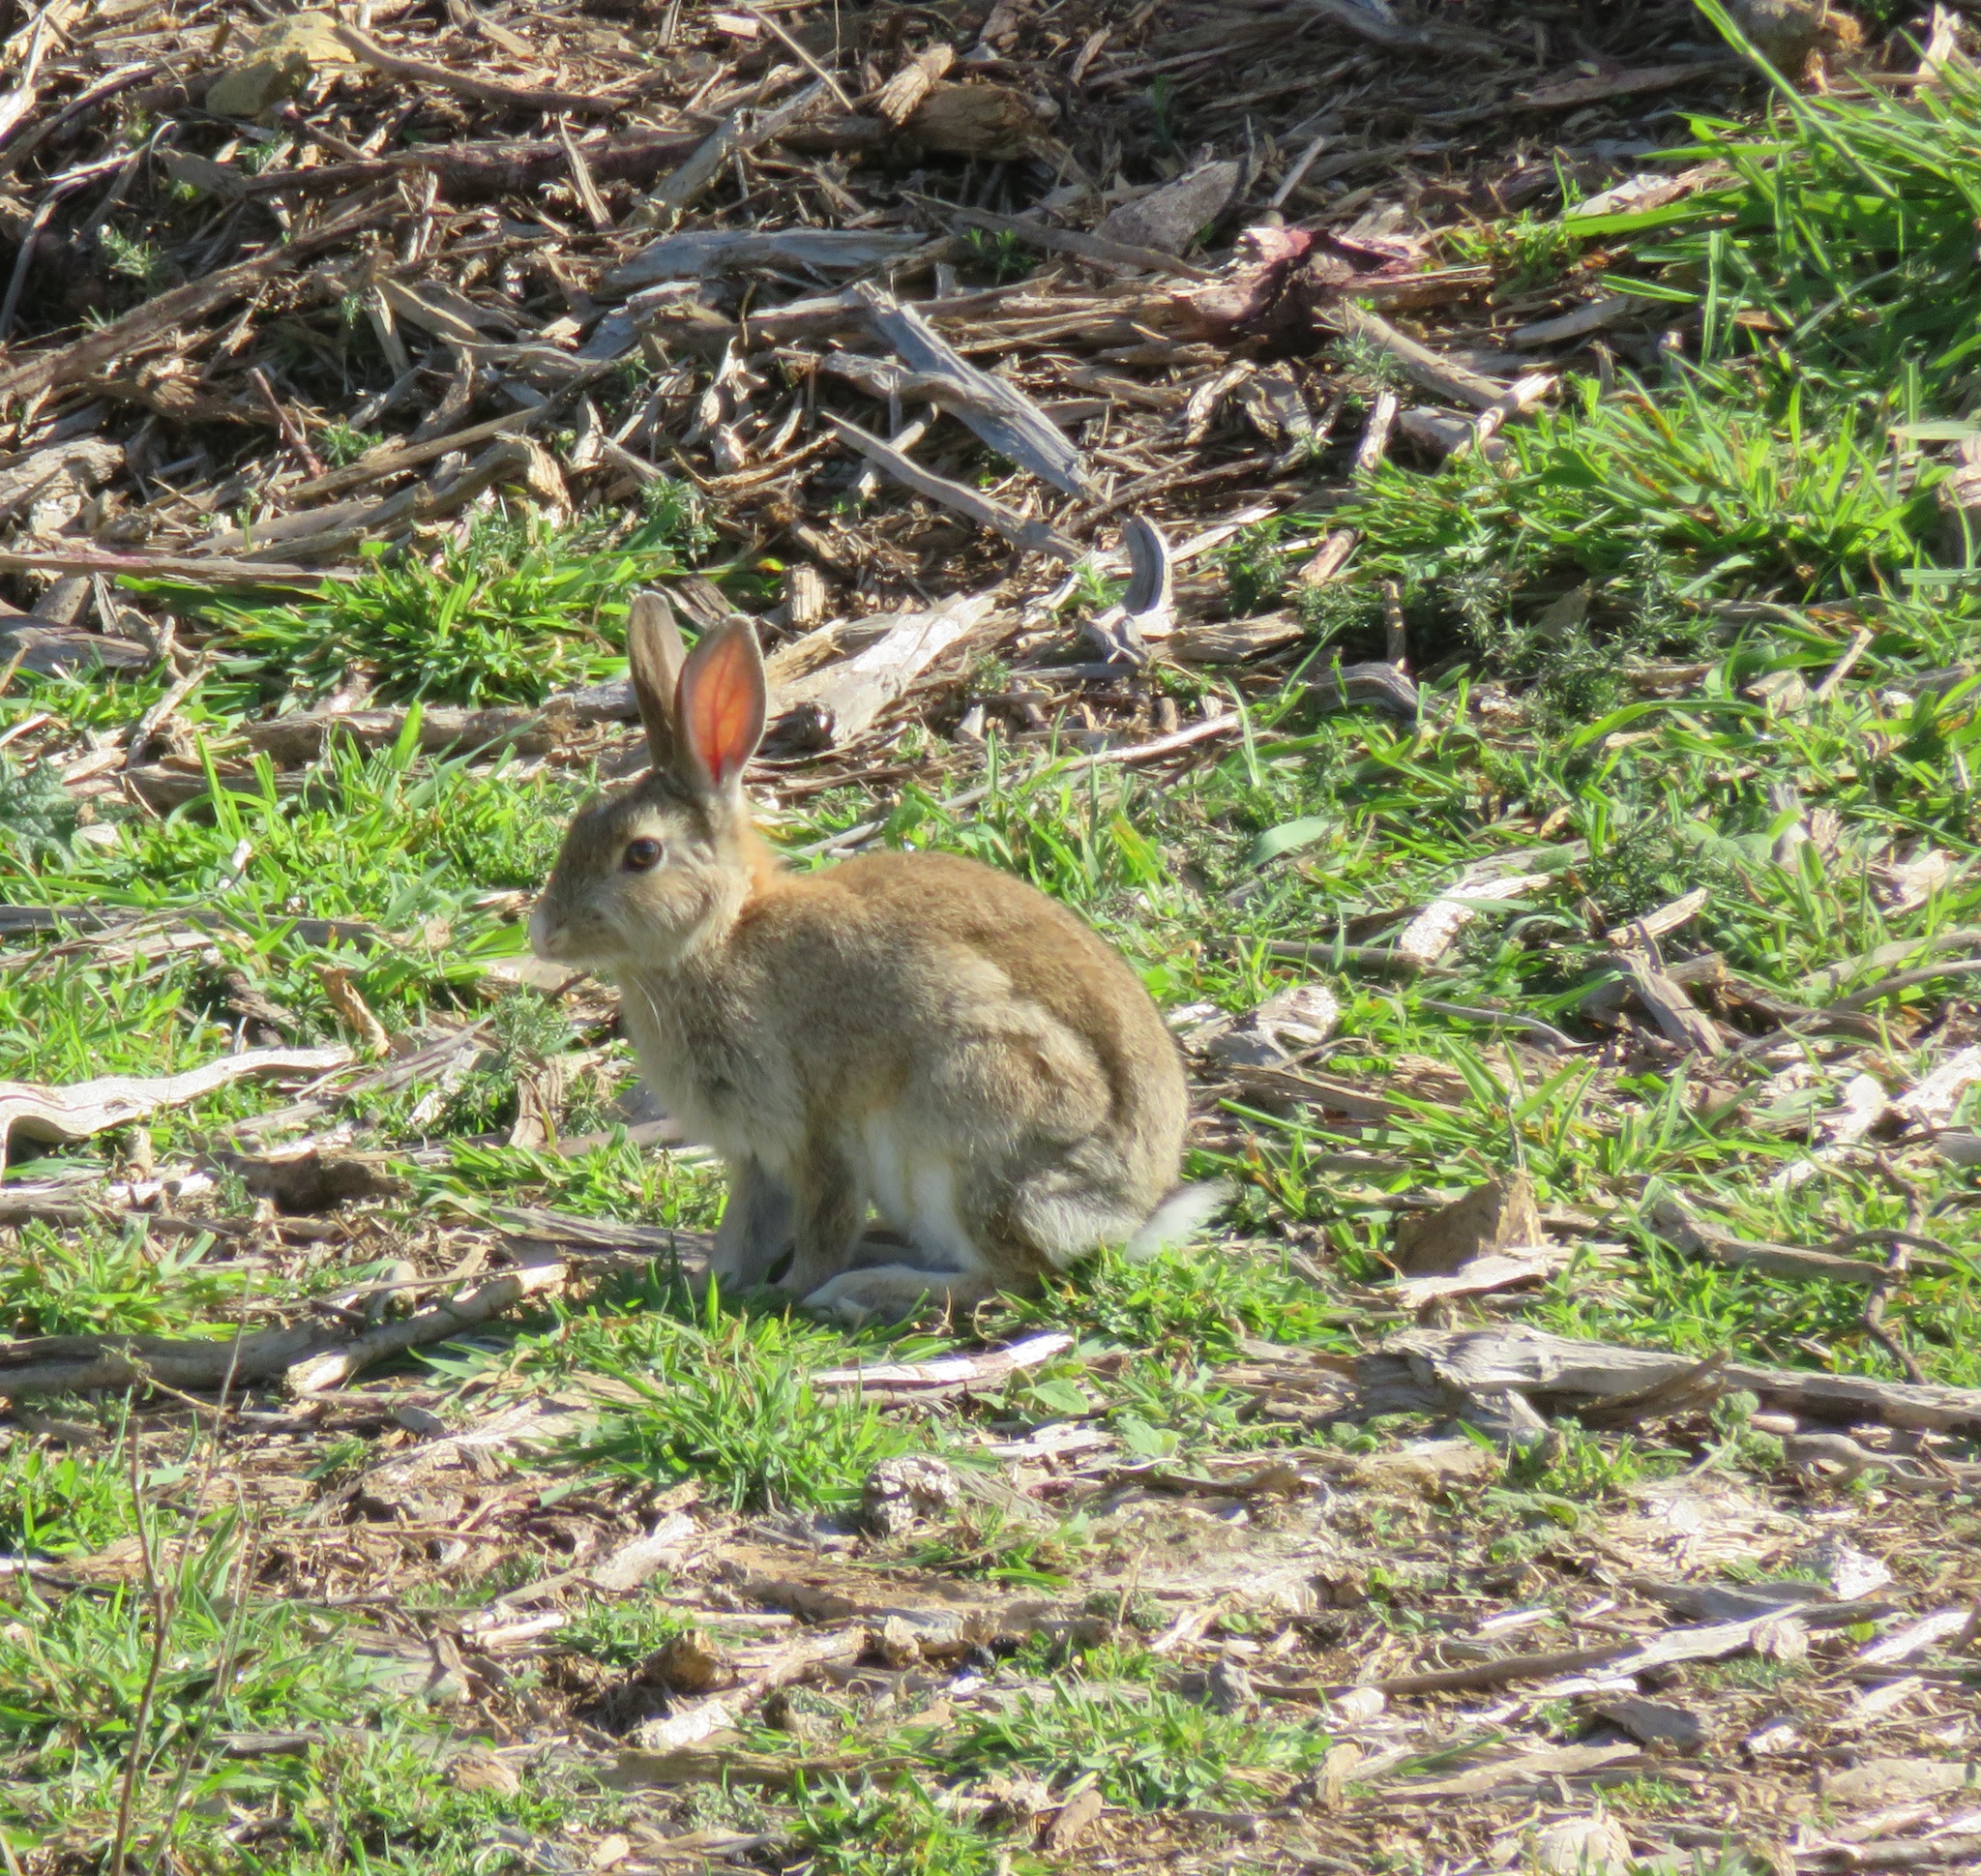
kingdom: Animalia
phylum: Chordata
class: Mammalia
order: Lagomorpha
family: Leporidae
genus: Oryctolagus
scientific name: Oryctolagus cuniculus
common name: European rabbit
